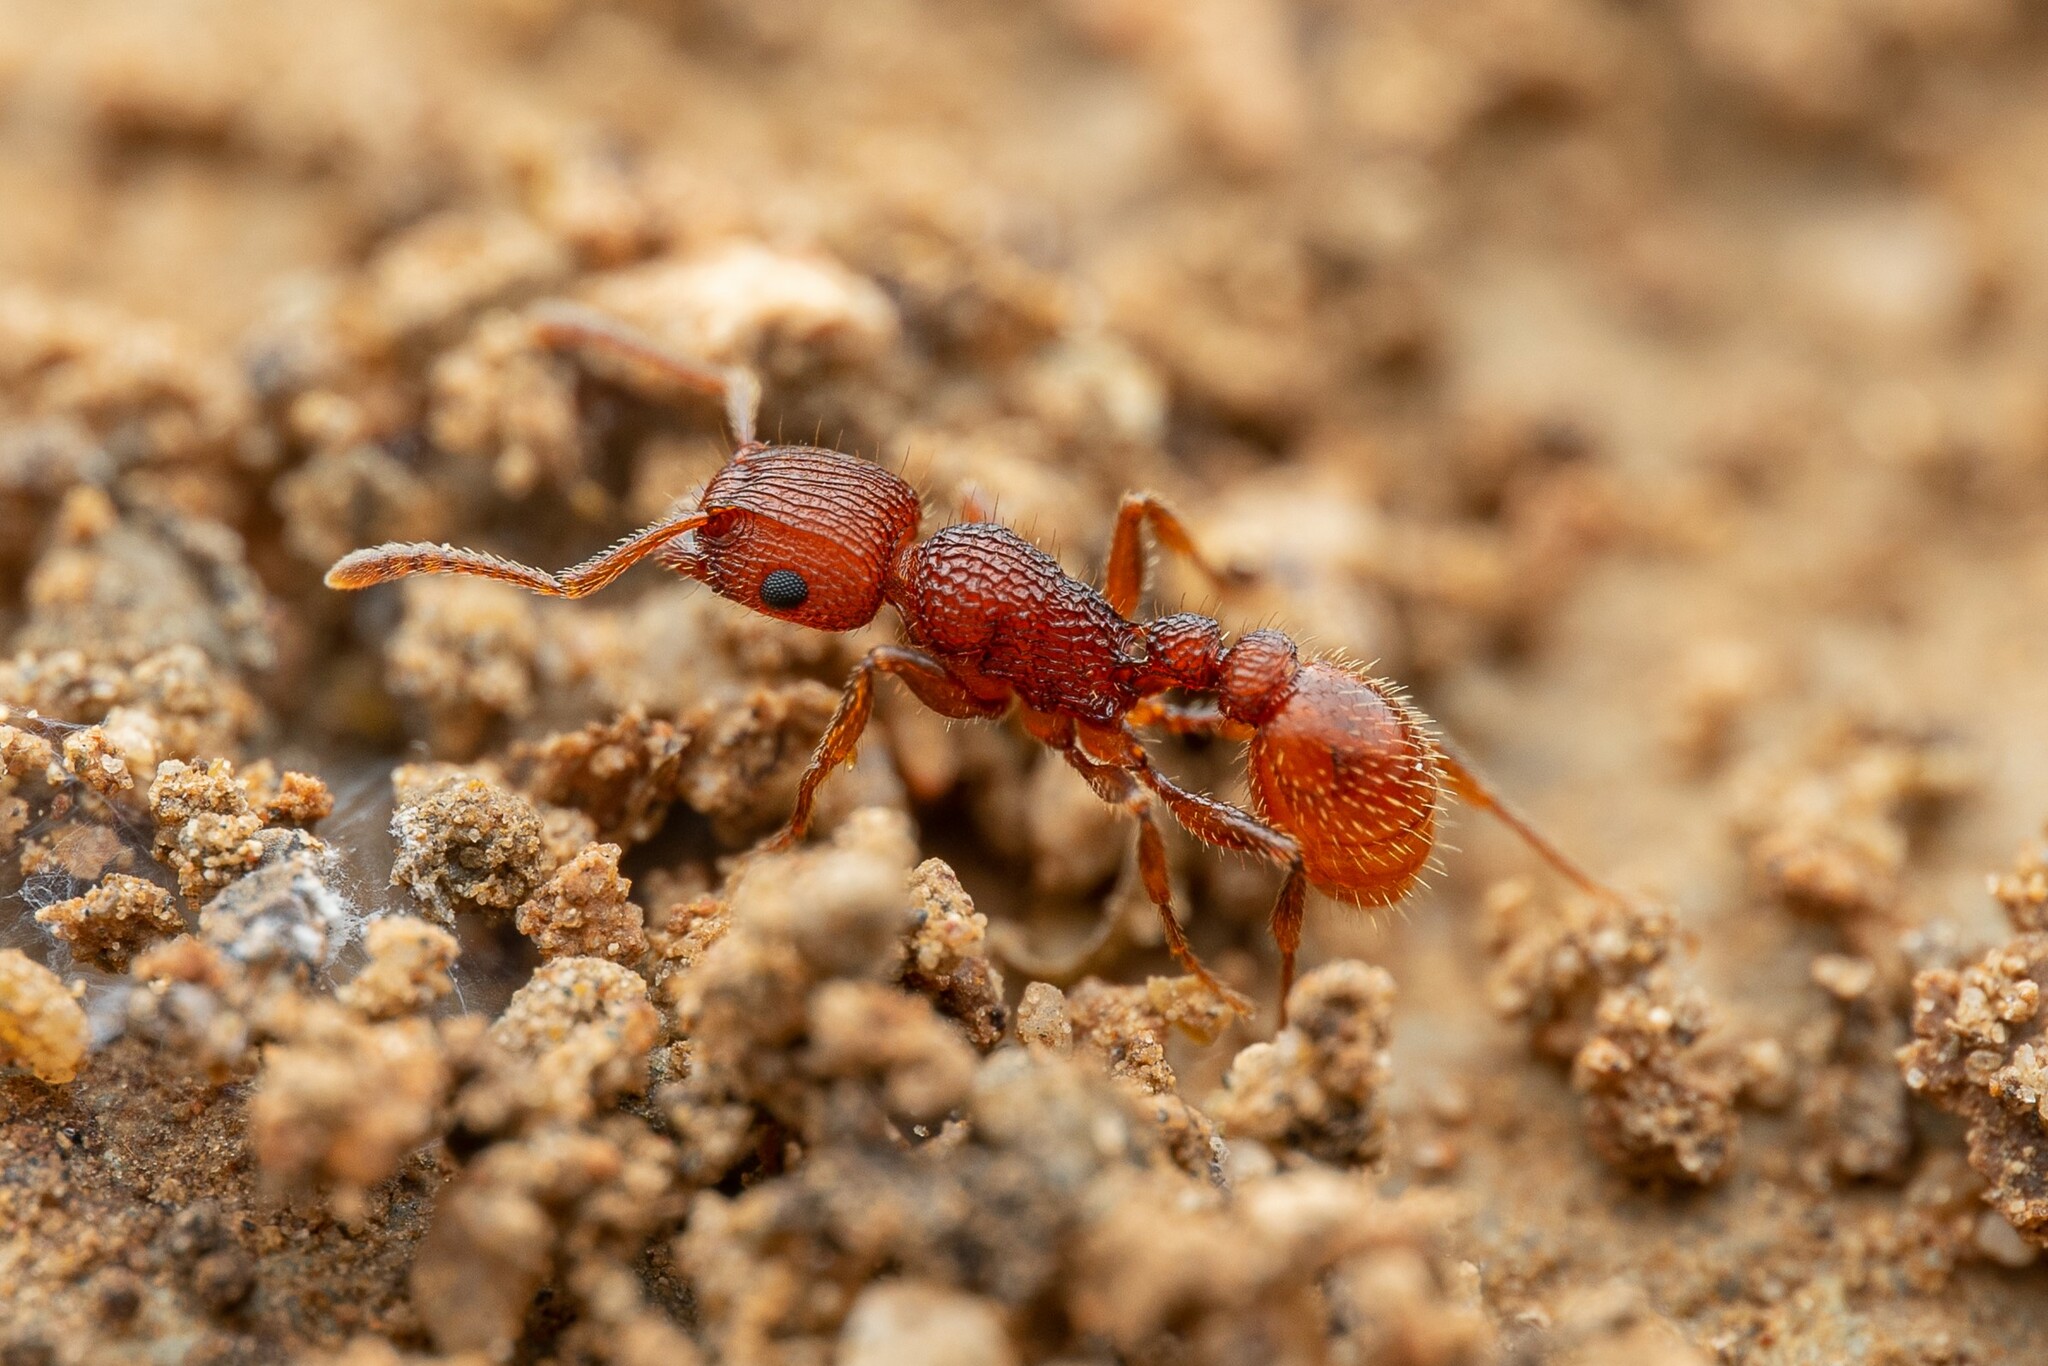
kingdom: Animalia
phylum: Arthropoda
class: Insecta
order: Hymenoptera
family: Formicidae
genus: Tetramorium
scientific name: Tetramorium hispidum
